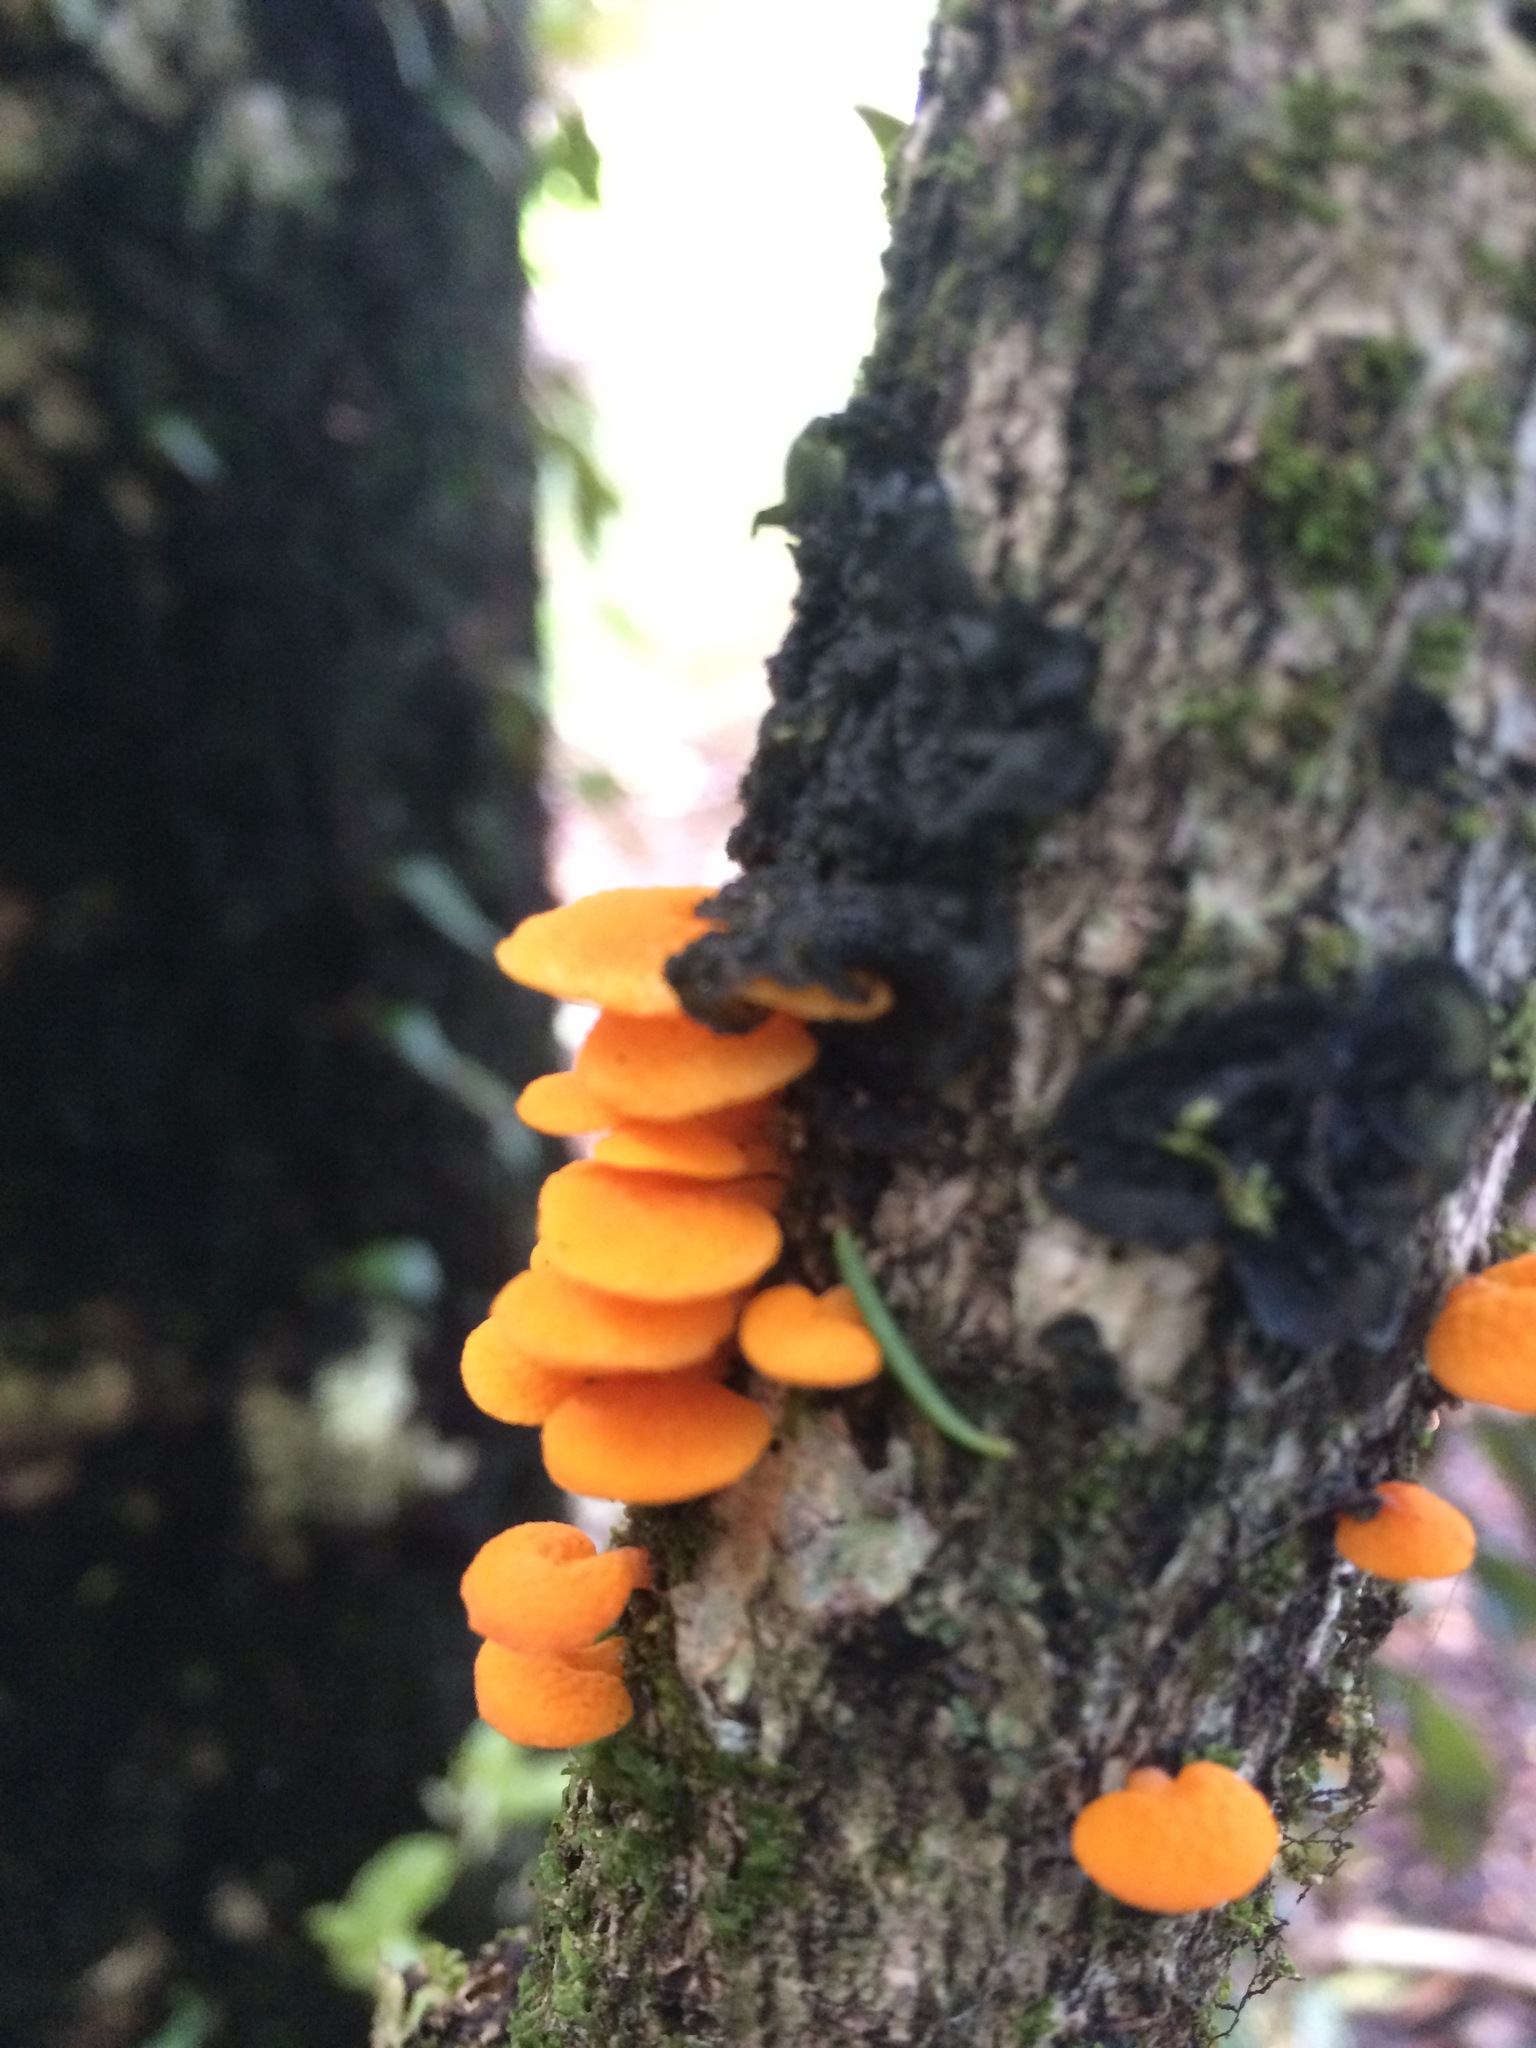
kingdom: Fungi
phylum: Basidiomycota
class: Agaricomycetes
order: Agaricales
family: Mycenaceae
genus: Favolaschia
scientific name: Favolaschia claudopus
